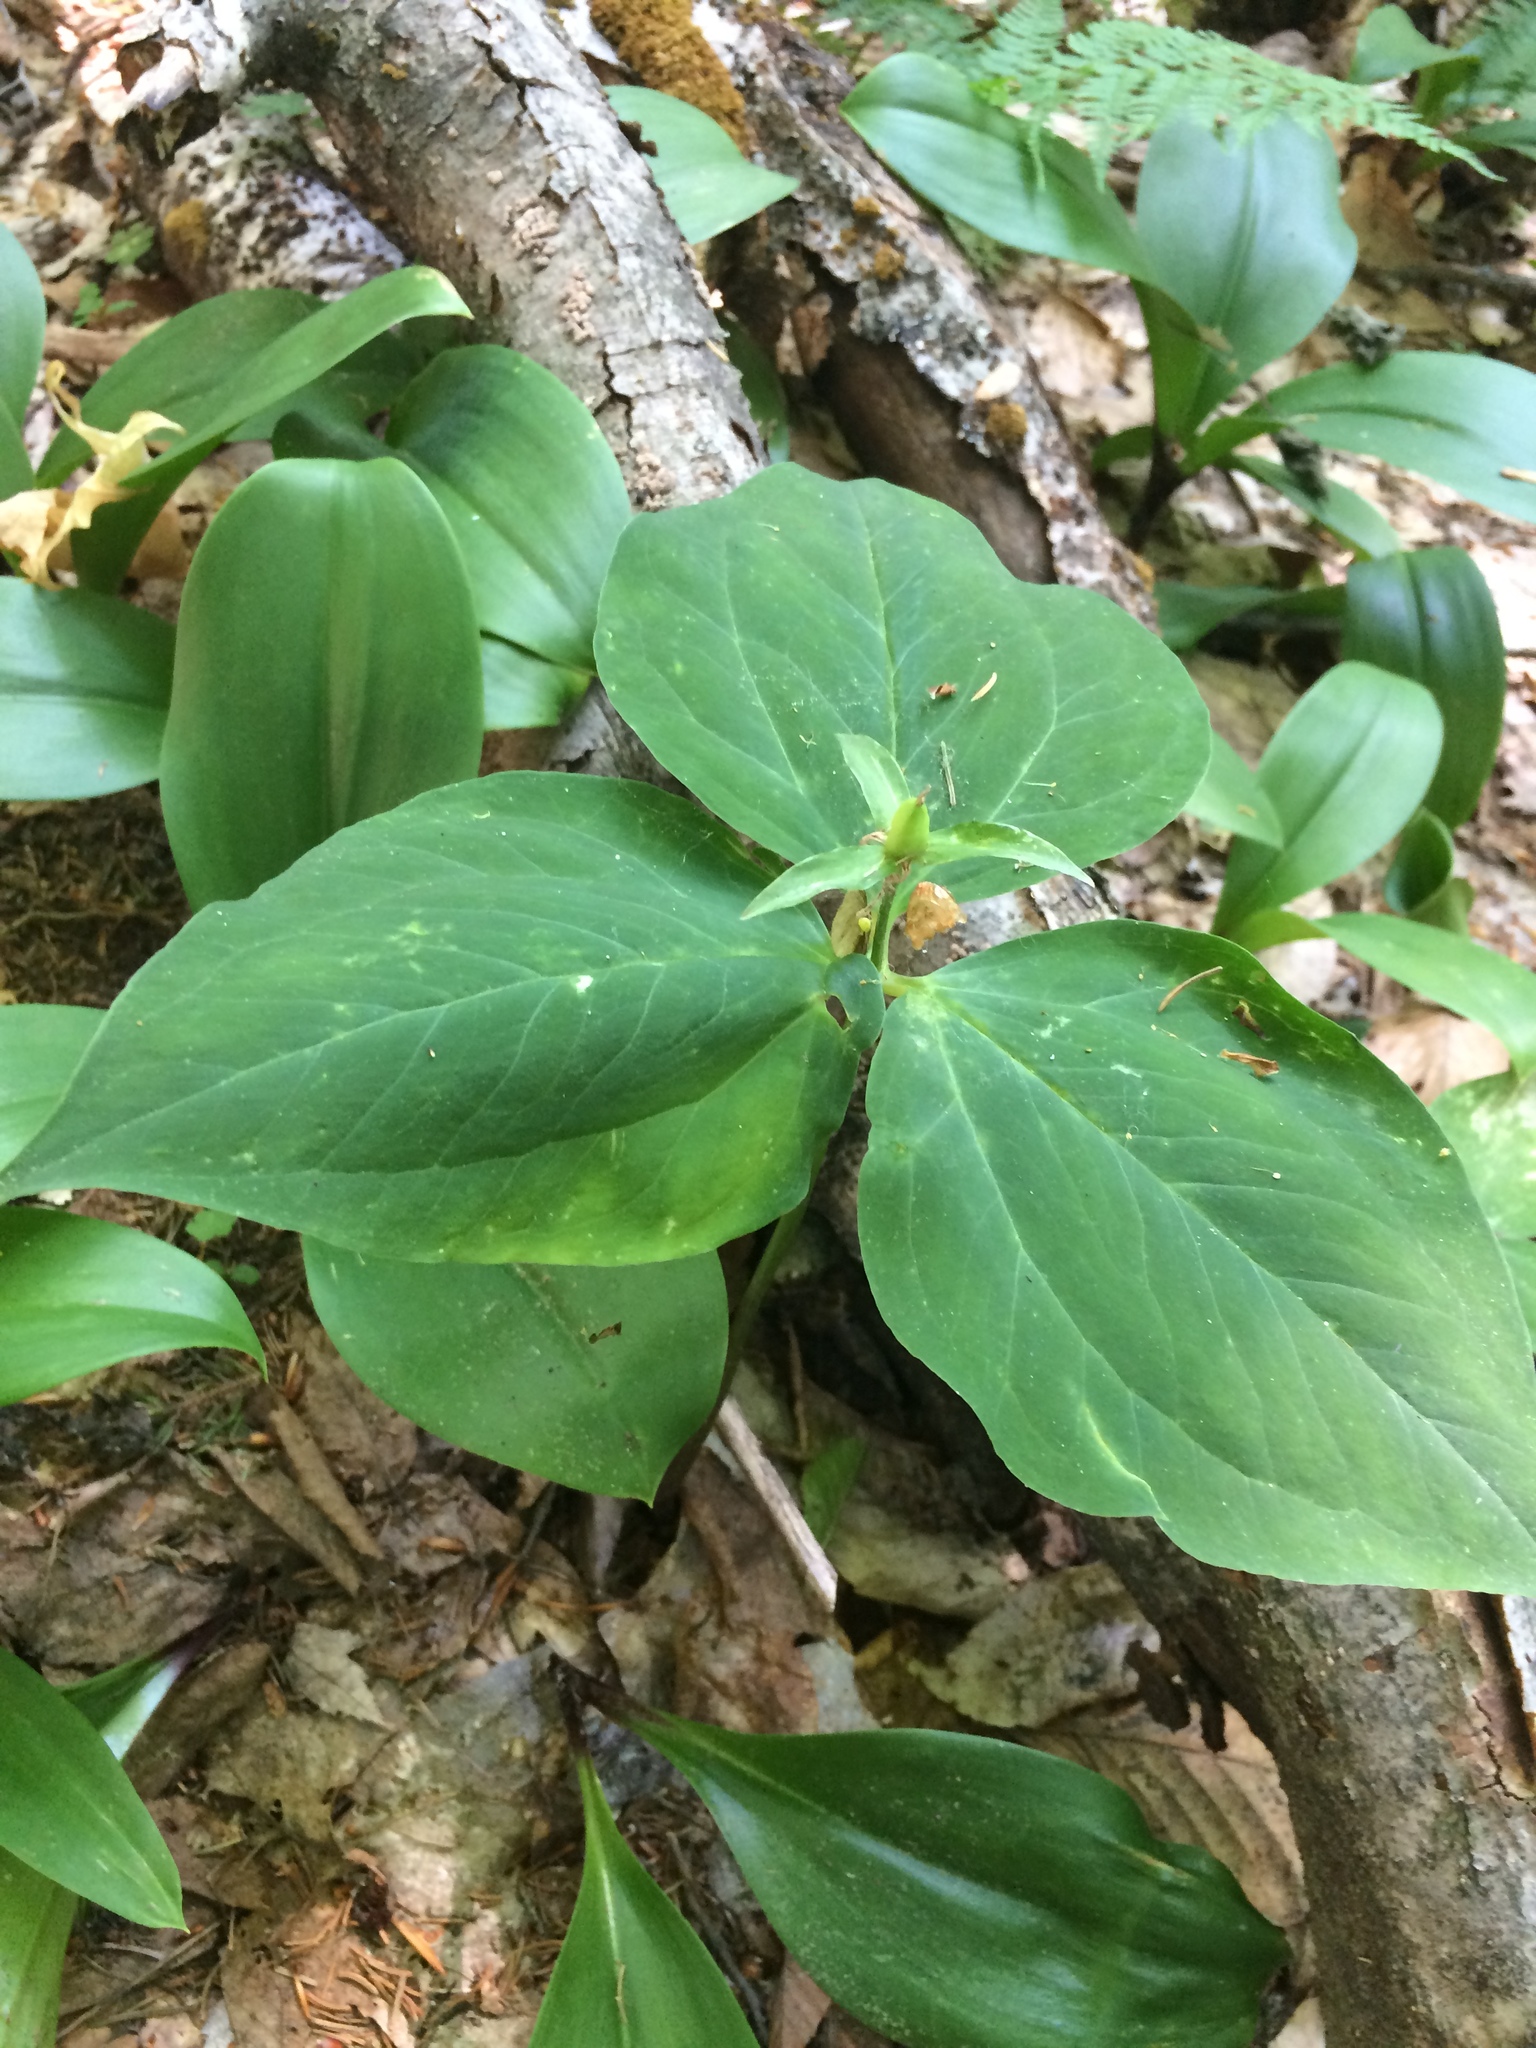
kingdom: Plantae
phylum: Tracheophyta
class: Liliopsida
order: Liliales
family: Melanthiaceae
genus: Trillium
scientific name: Trillium undulatum
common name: Paint trillium
